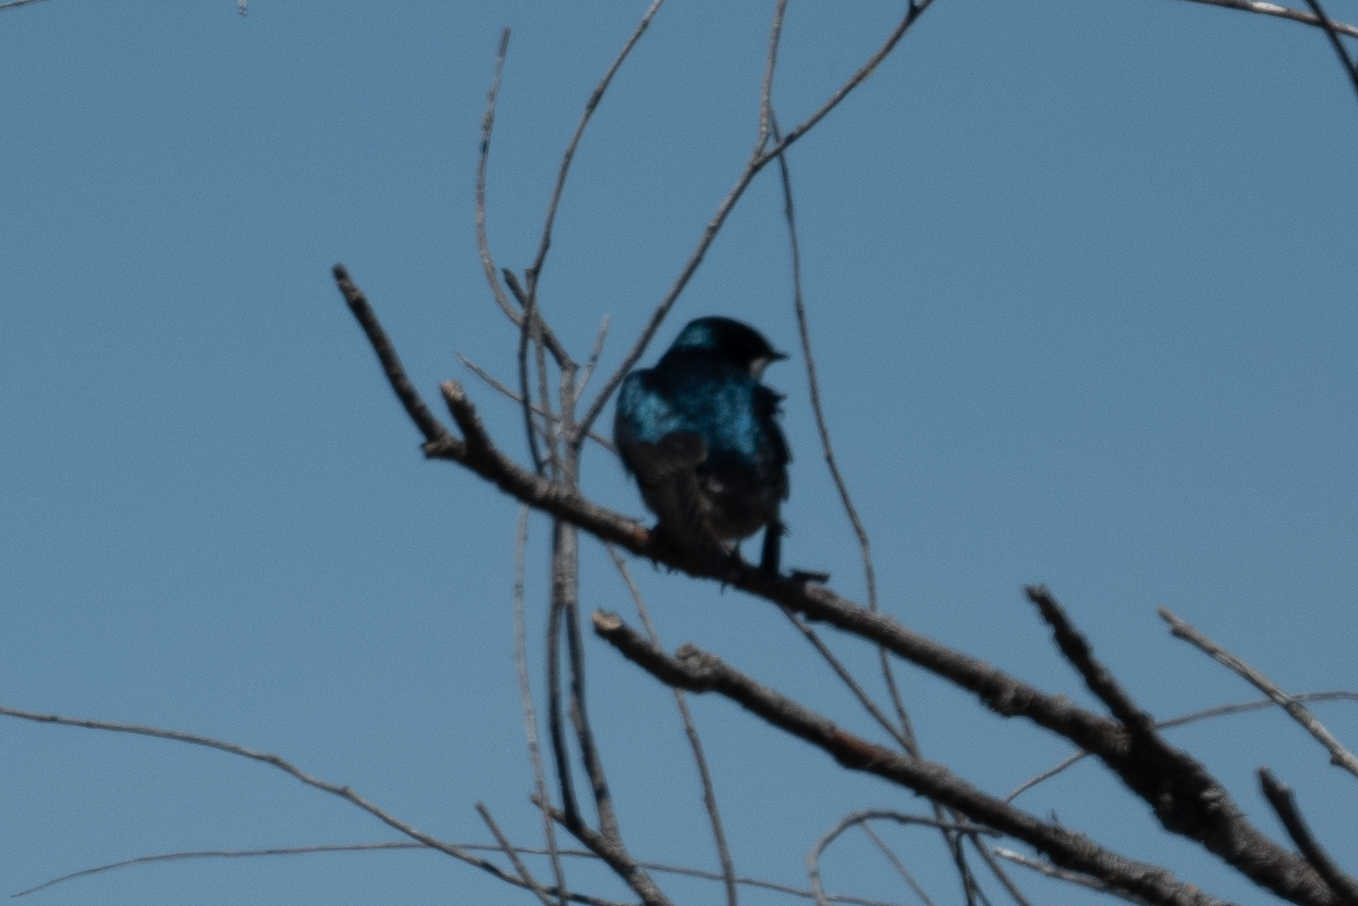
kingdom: Animalia
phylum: Chordata
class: Aves
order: Passeriformes
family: Hirundinidae
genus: Tachycineta
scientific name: Tachycineta bicolor
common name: Tree swallow
